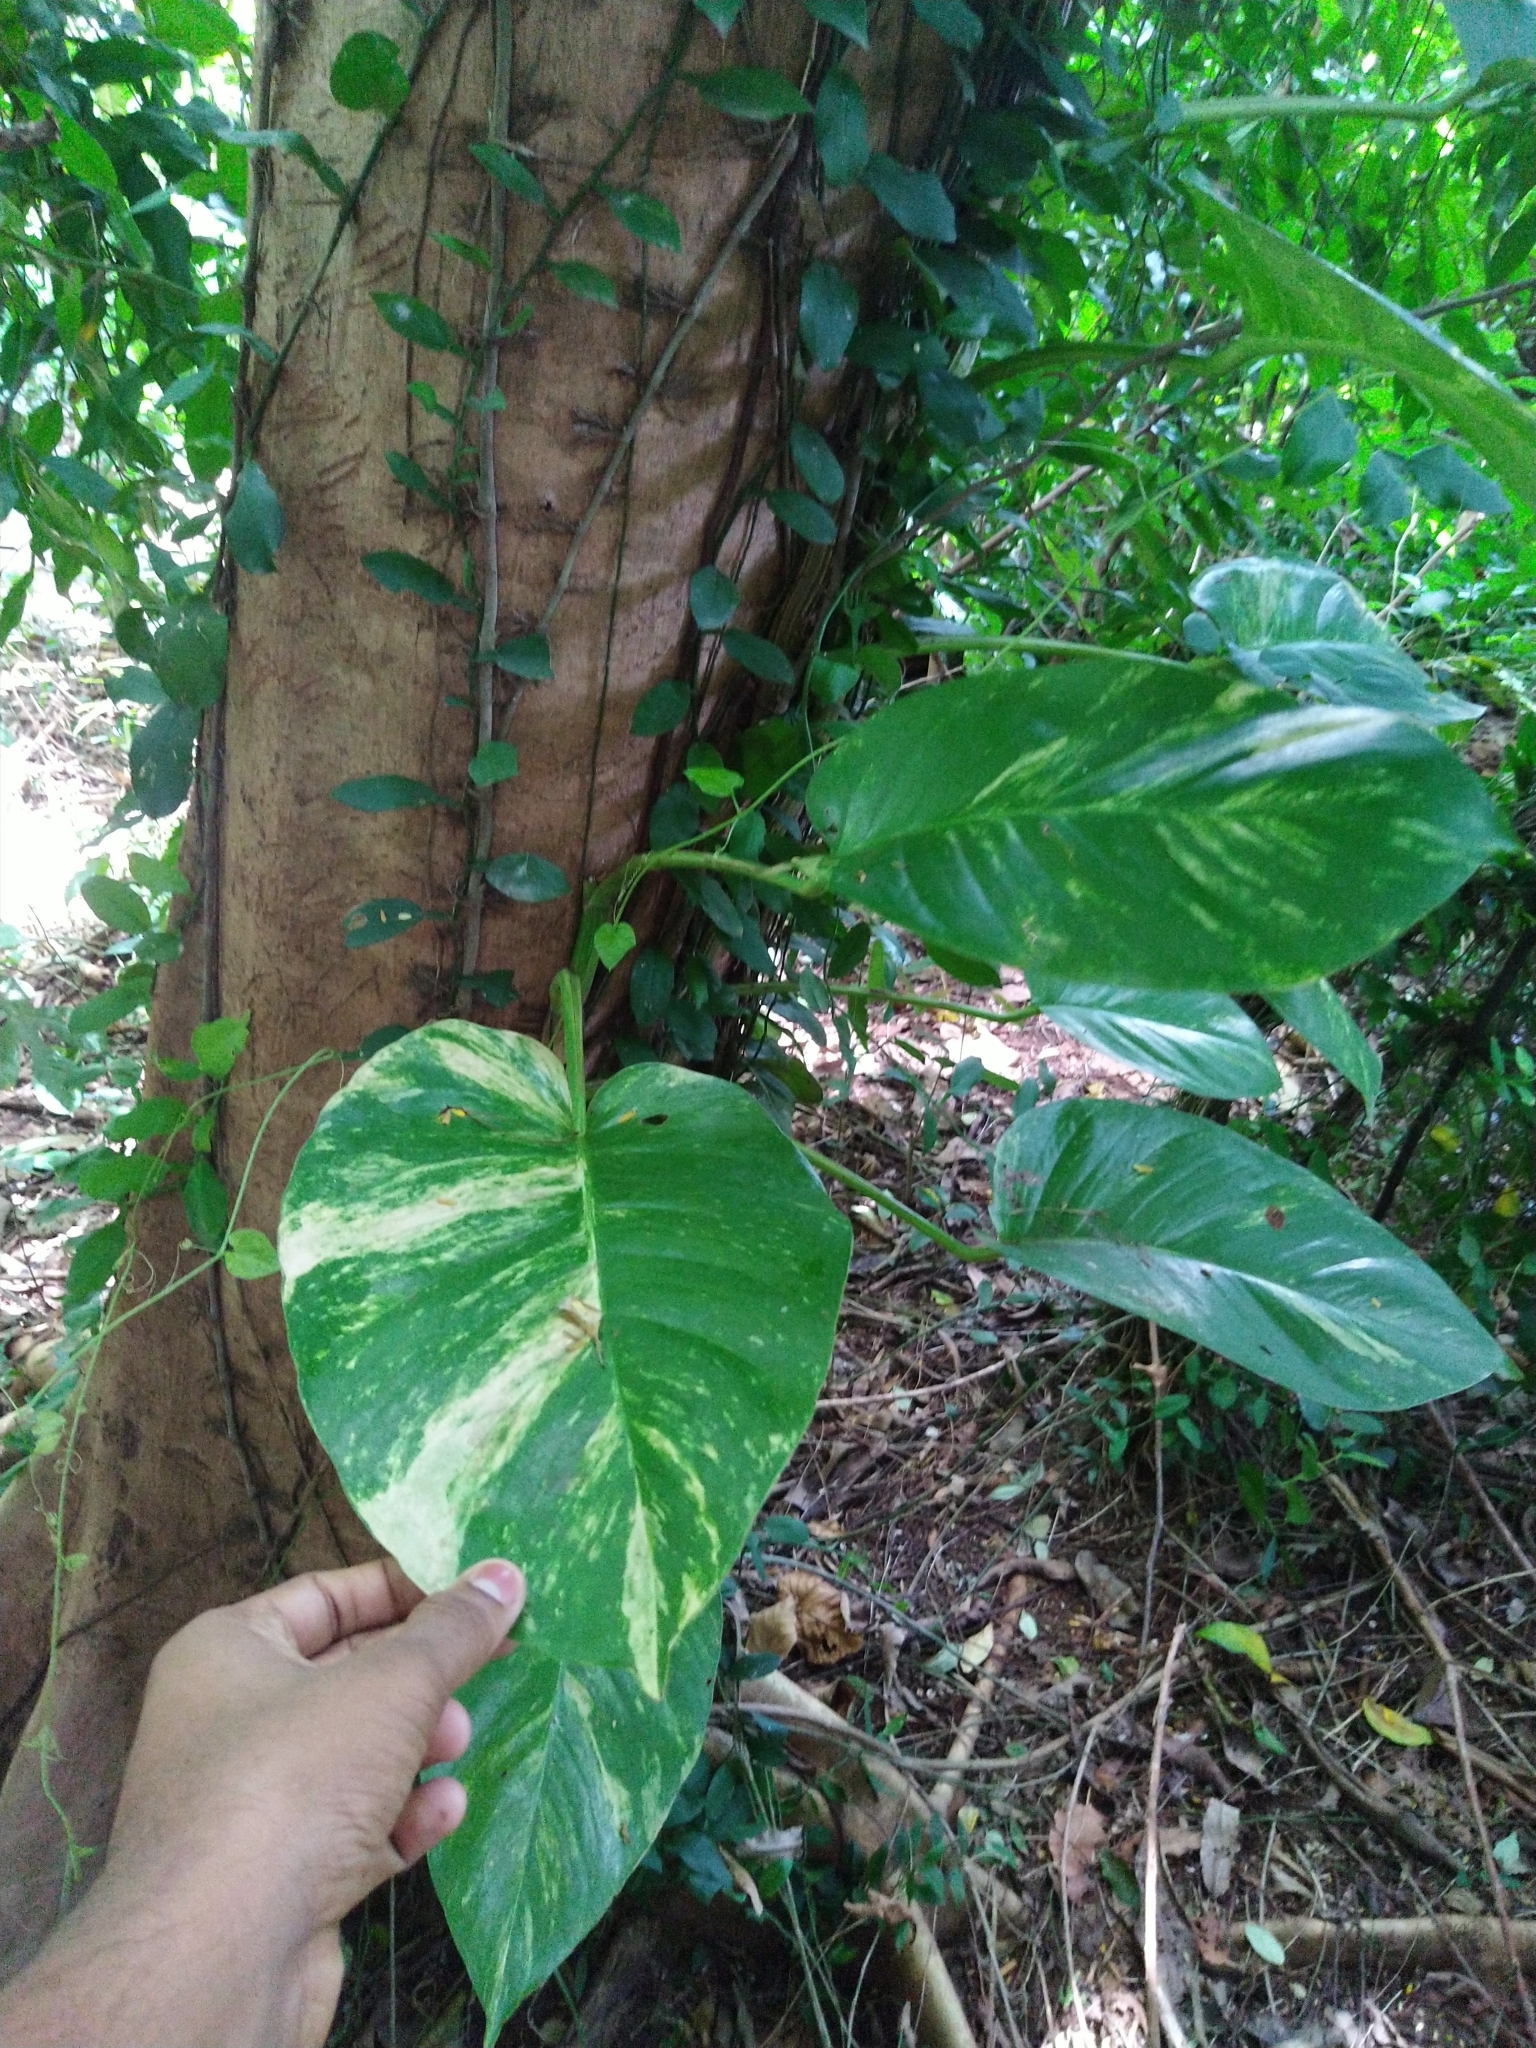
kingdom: Plantae
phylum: Tracheophyta
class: Liliopsida
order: Alismatales
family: Araceae
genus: Epipremnum
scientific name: Epipremnum aureum
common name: Golden hunter's-robe
